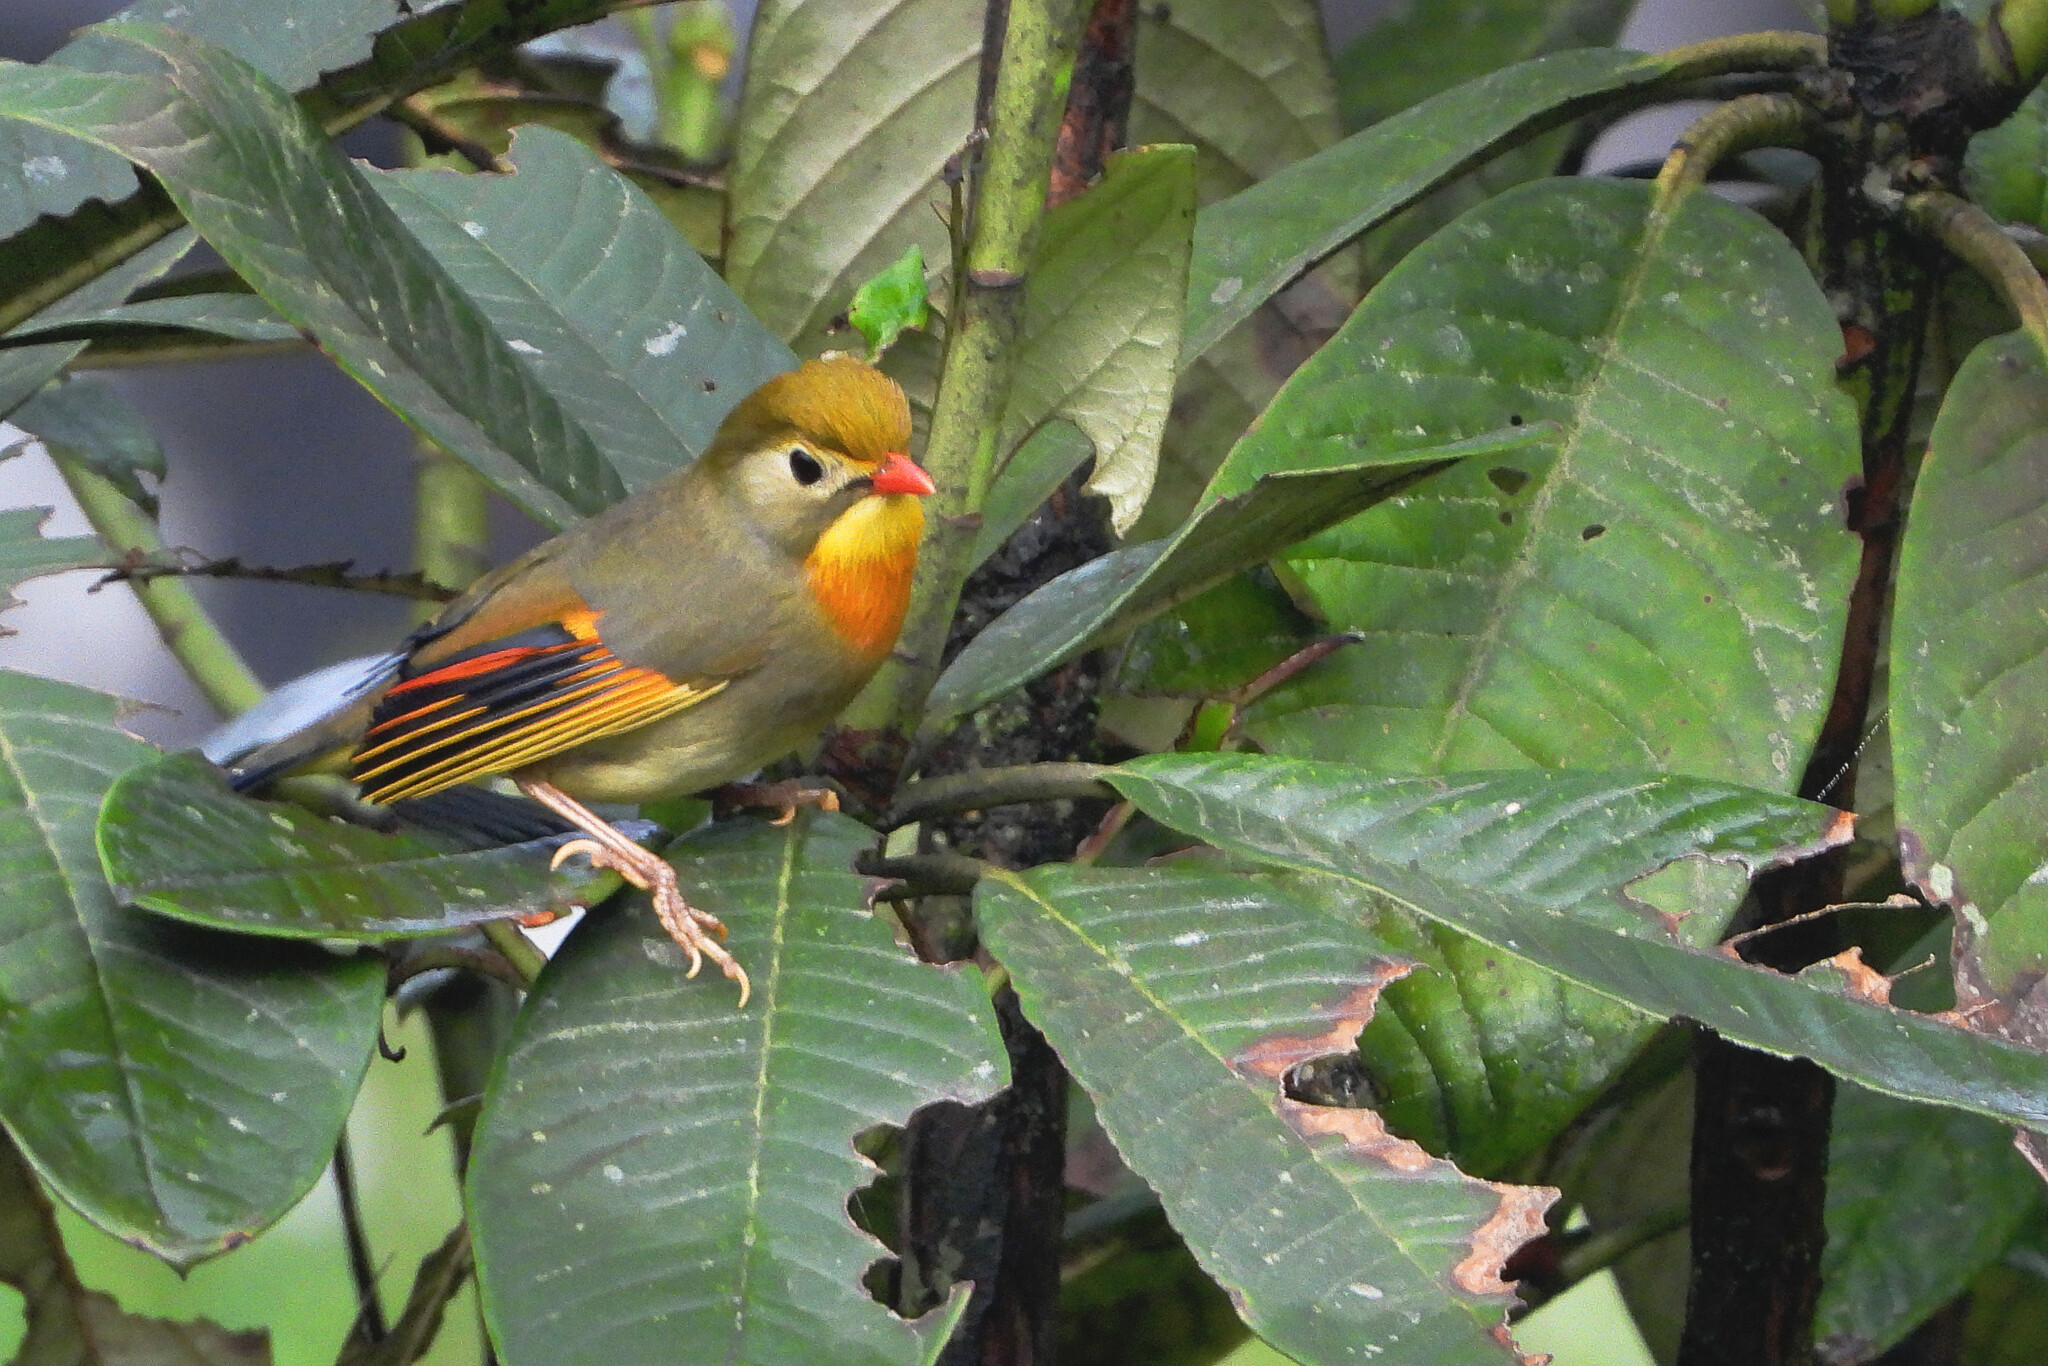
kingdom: Animalia
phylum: Chordata
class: Aves
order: Passeriformes
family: Leiothrichidae
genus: Leiothrix
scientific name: Leiothrix lutea
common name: Red-billed leiothrix
